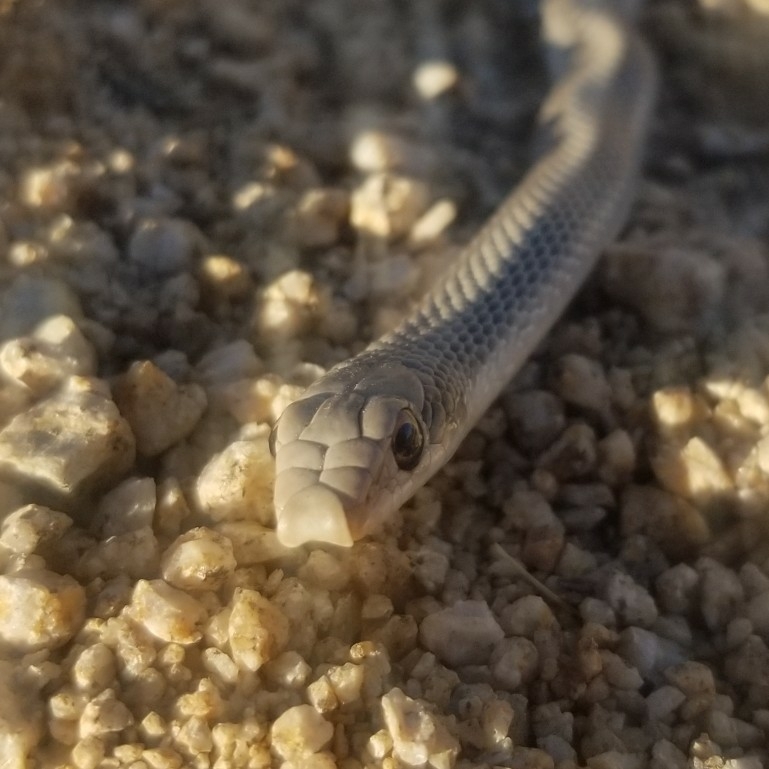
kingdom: Animalia
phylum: Chordata
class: Squamata
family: Colubridae
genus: Salvadora
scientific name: Salvadora hexalepis
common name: Western patchnose snake
